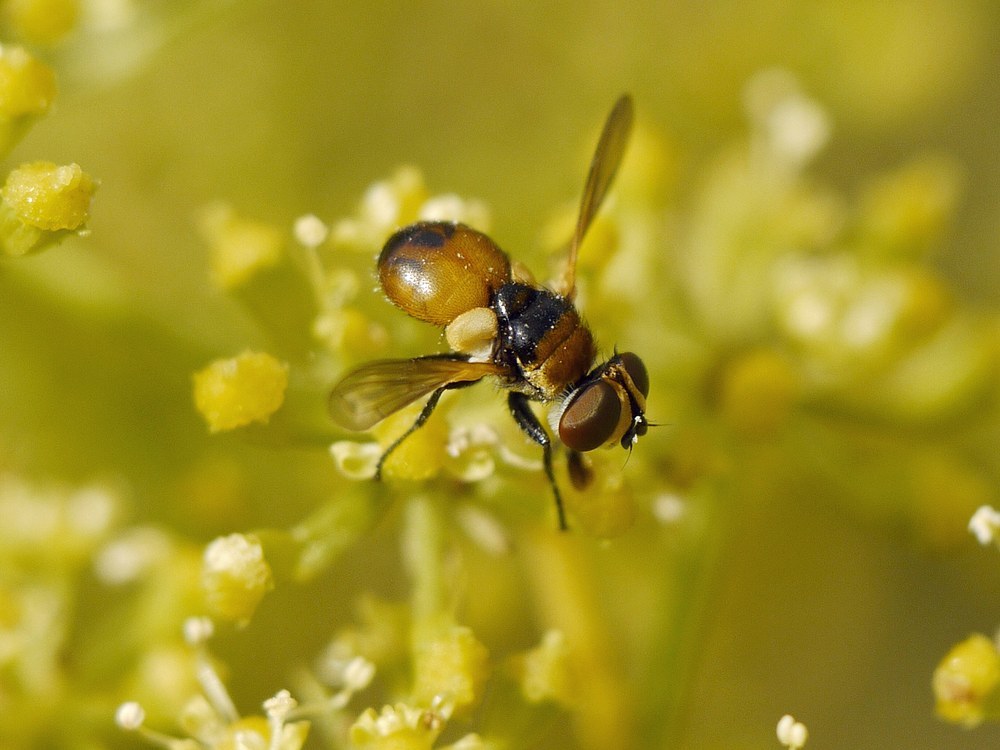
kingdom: Animalia
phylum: Arthropoda
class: Insecta
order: Diptera
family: Tachinidae
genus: Cistogaster
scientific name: Cistogaster globosa
